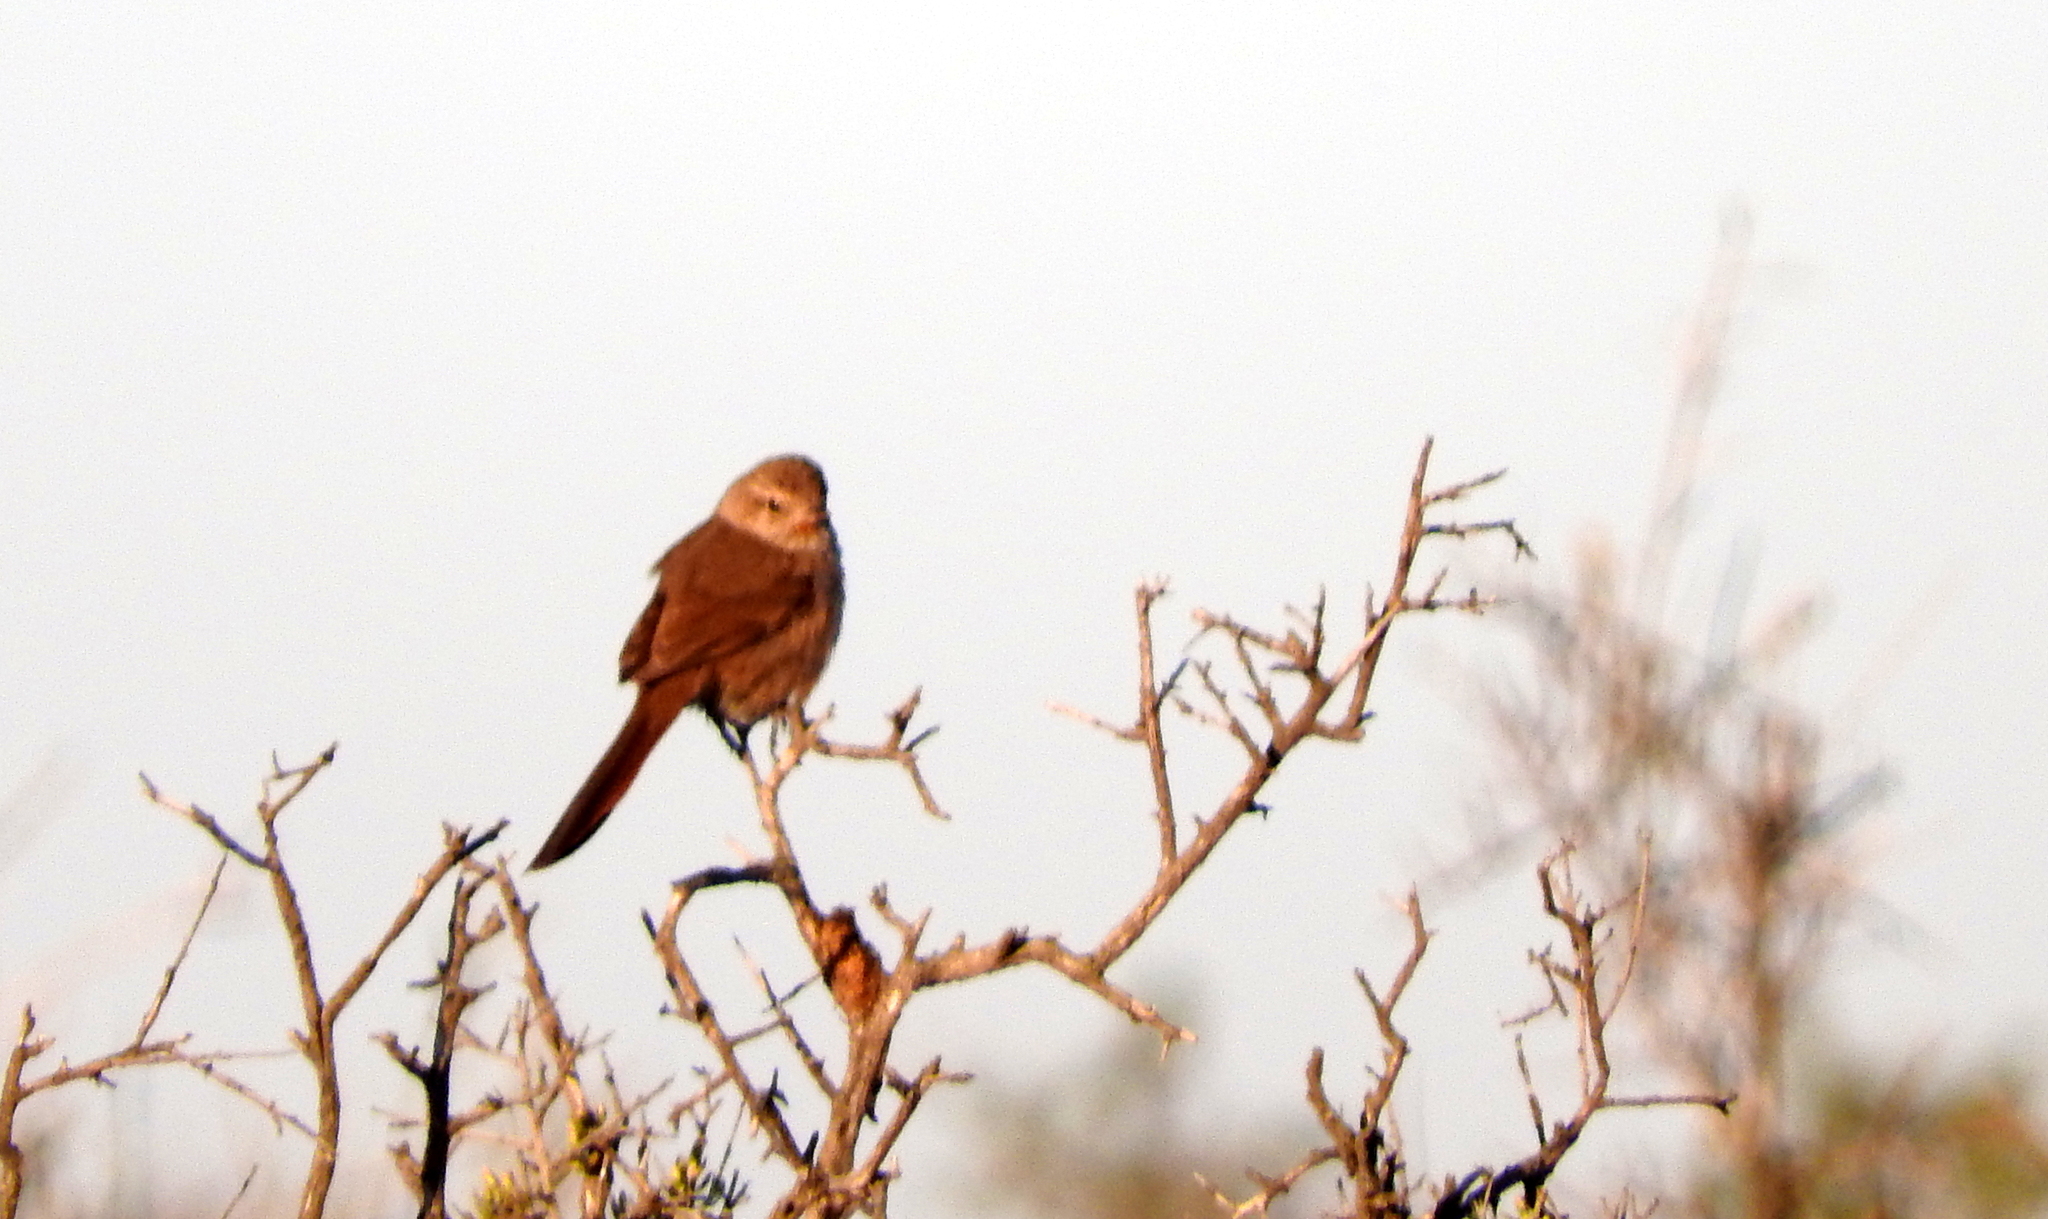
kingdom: Animalia
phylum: Chordata
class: Aves
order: Passeriformes
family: Furnariidae
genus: Asthenes
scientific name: Asthenes pyrrholeuca
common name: Sharp-billed canastero
